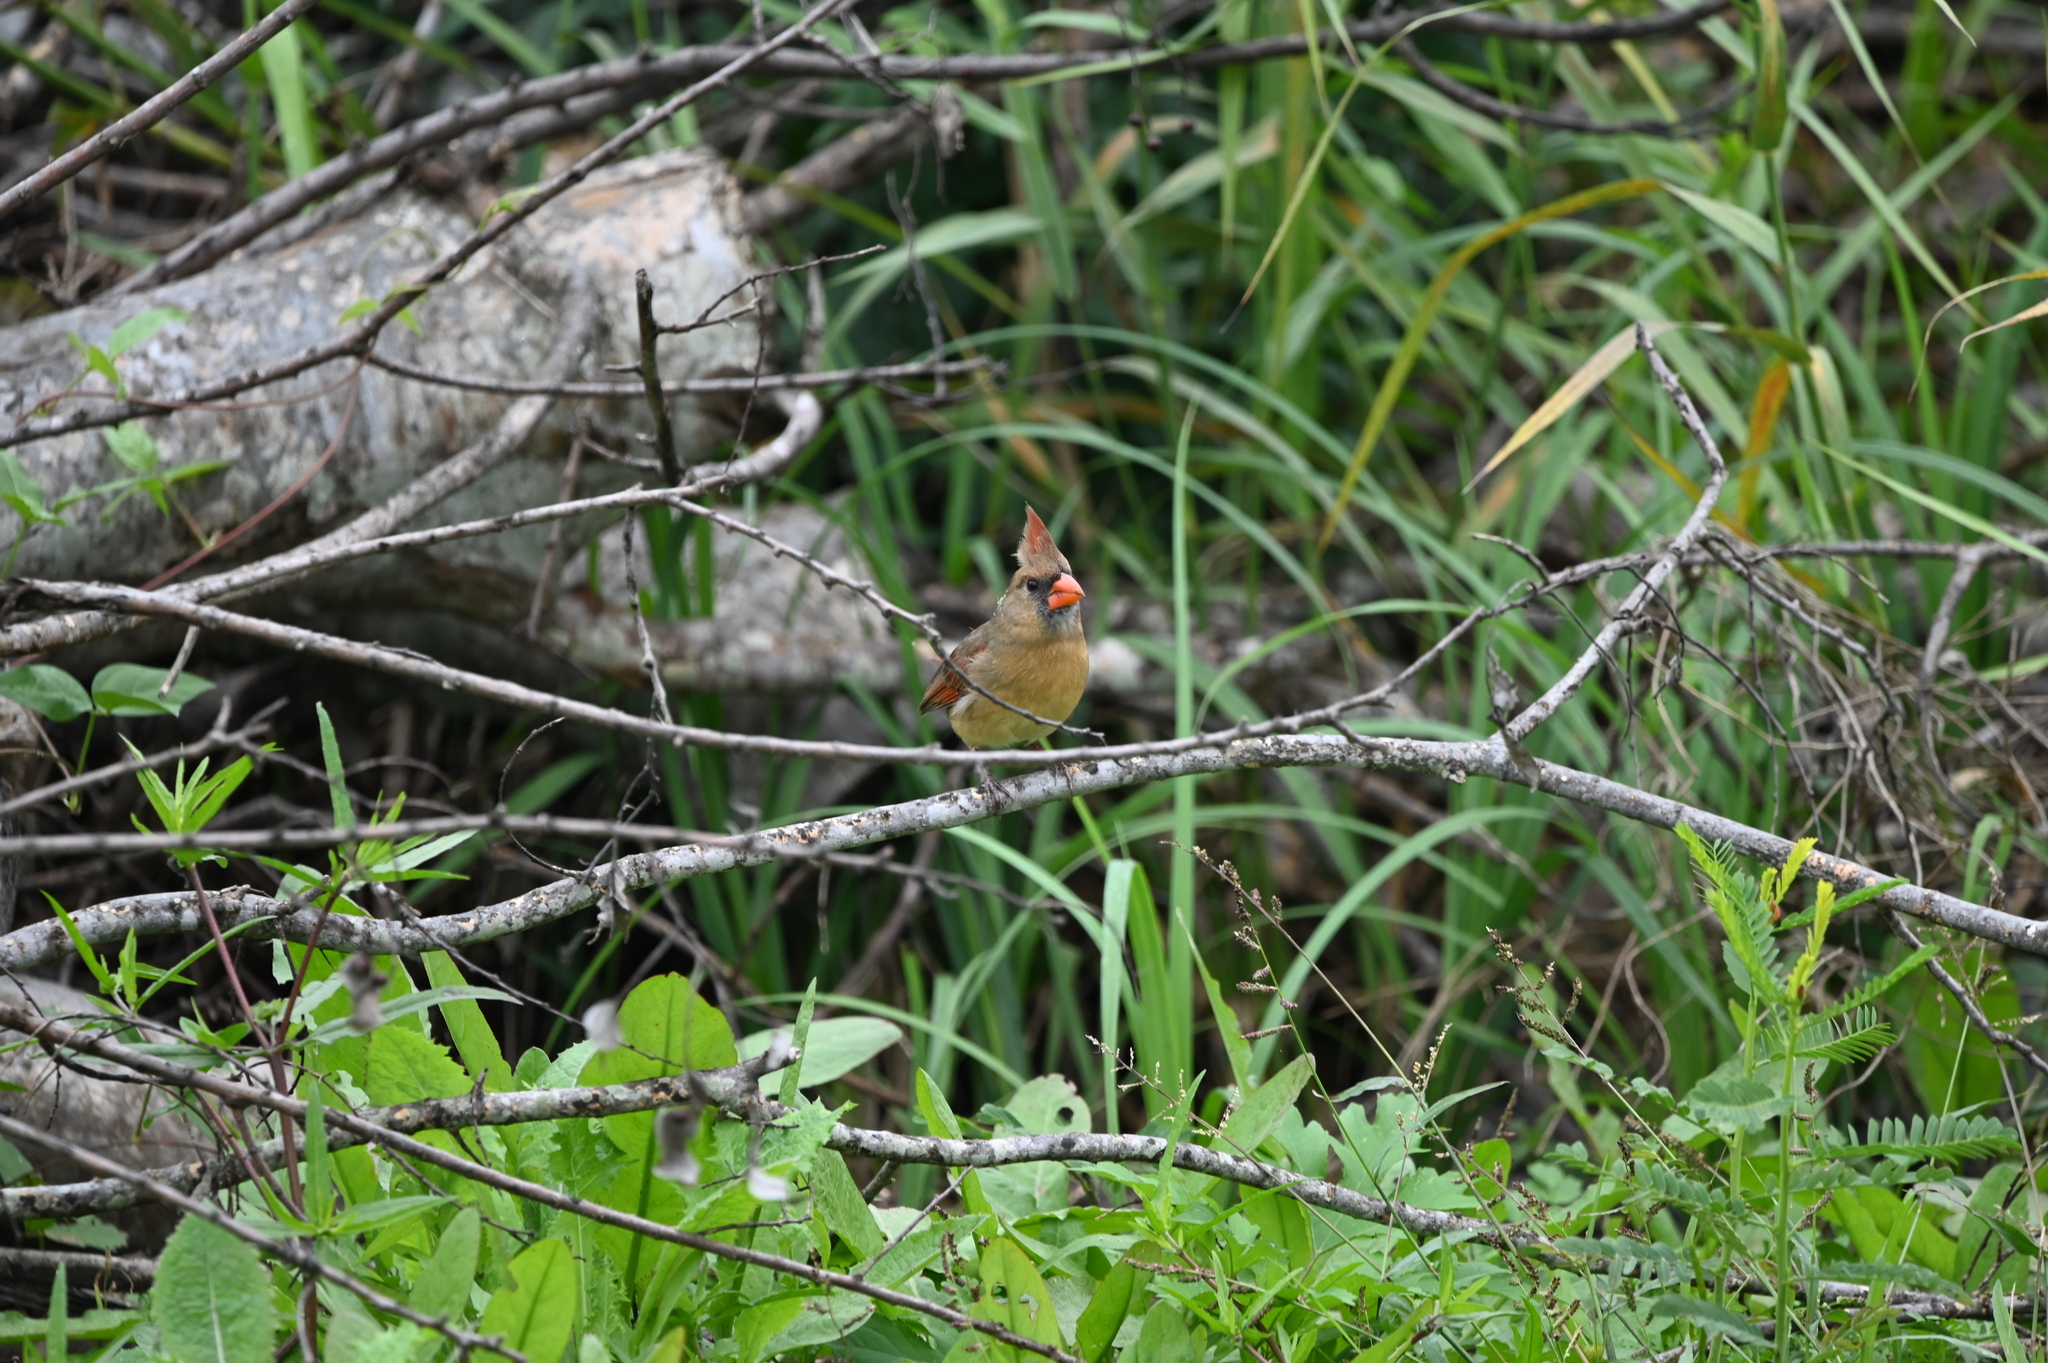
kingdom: Animalia
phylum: Chordata
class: Aves
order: Passeriformes
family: Cardinalidae
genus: Cardinalis
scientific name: Cardinalis cardinalis
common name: Northern cardinal
